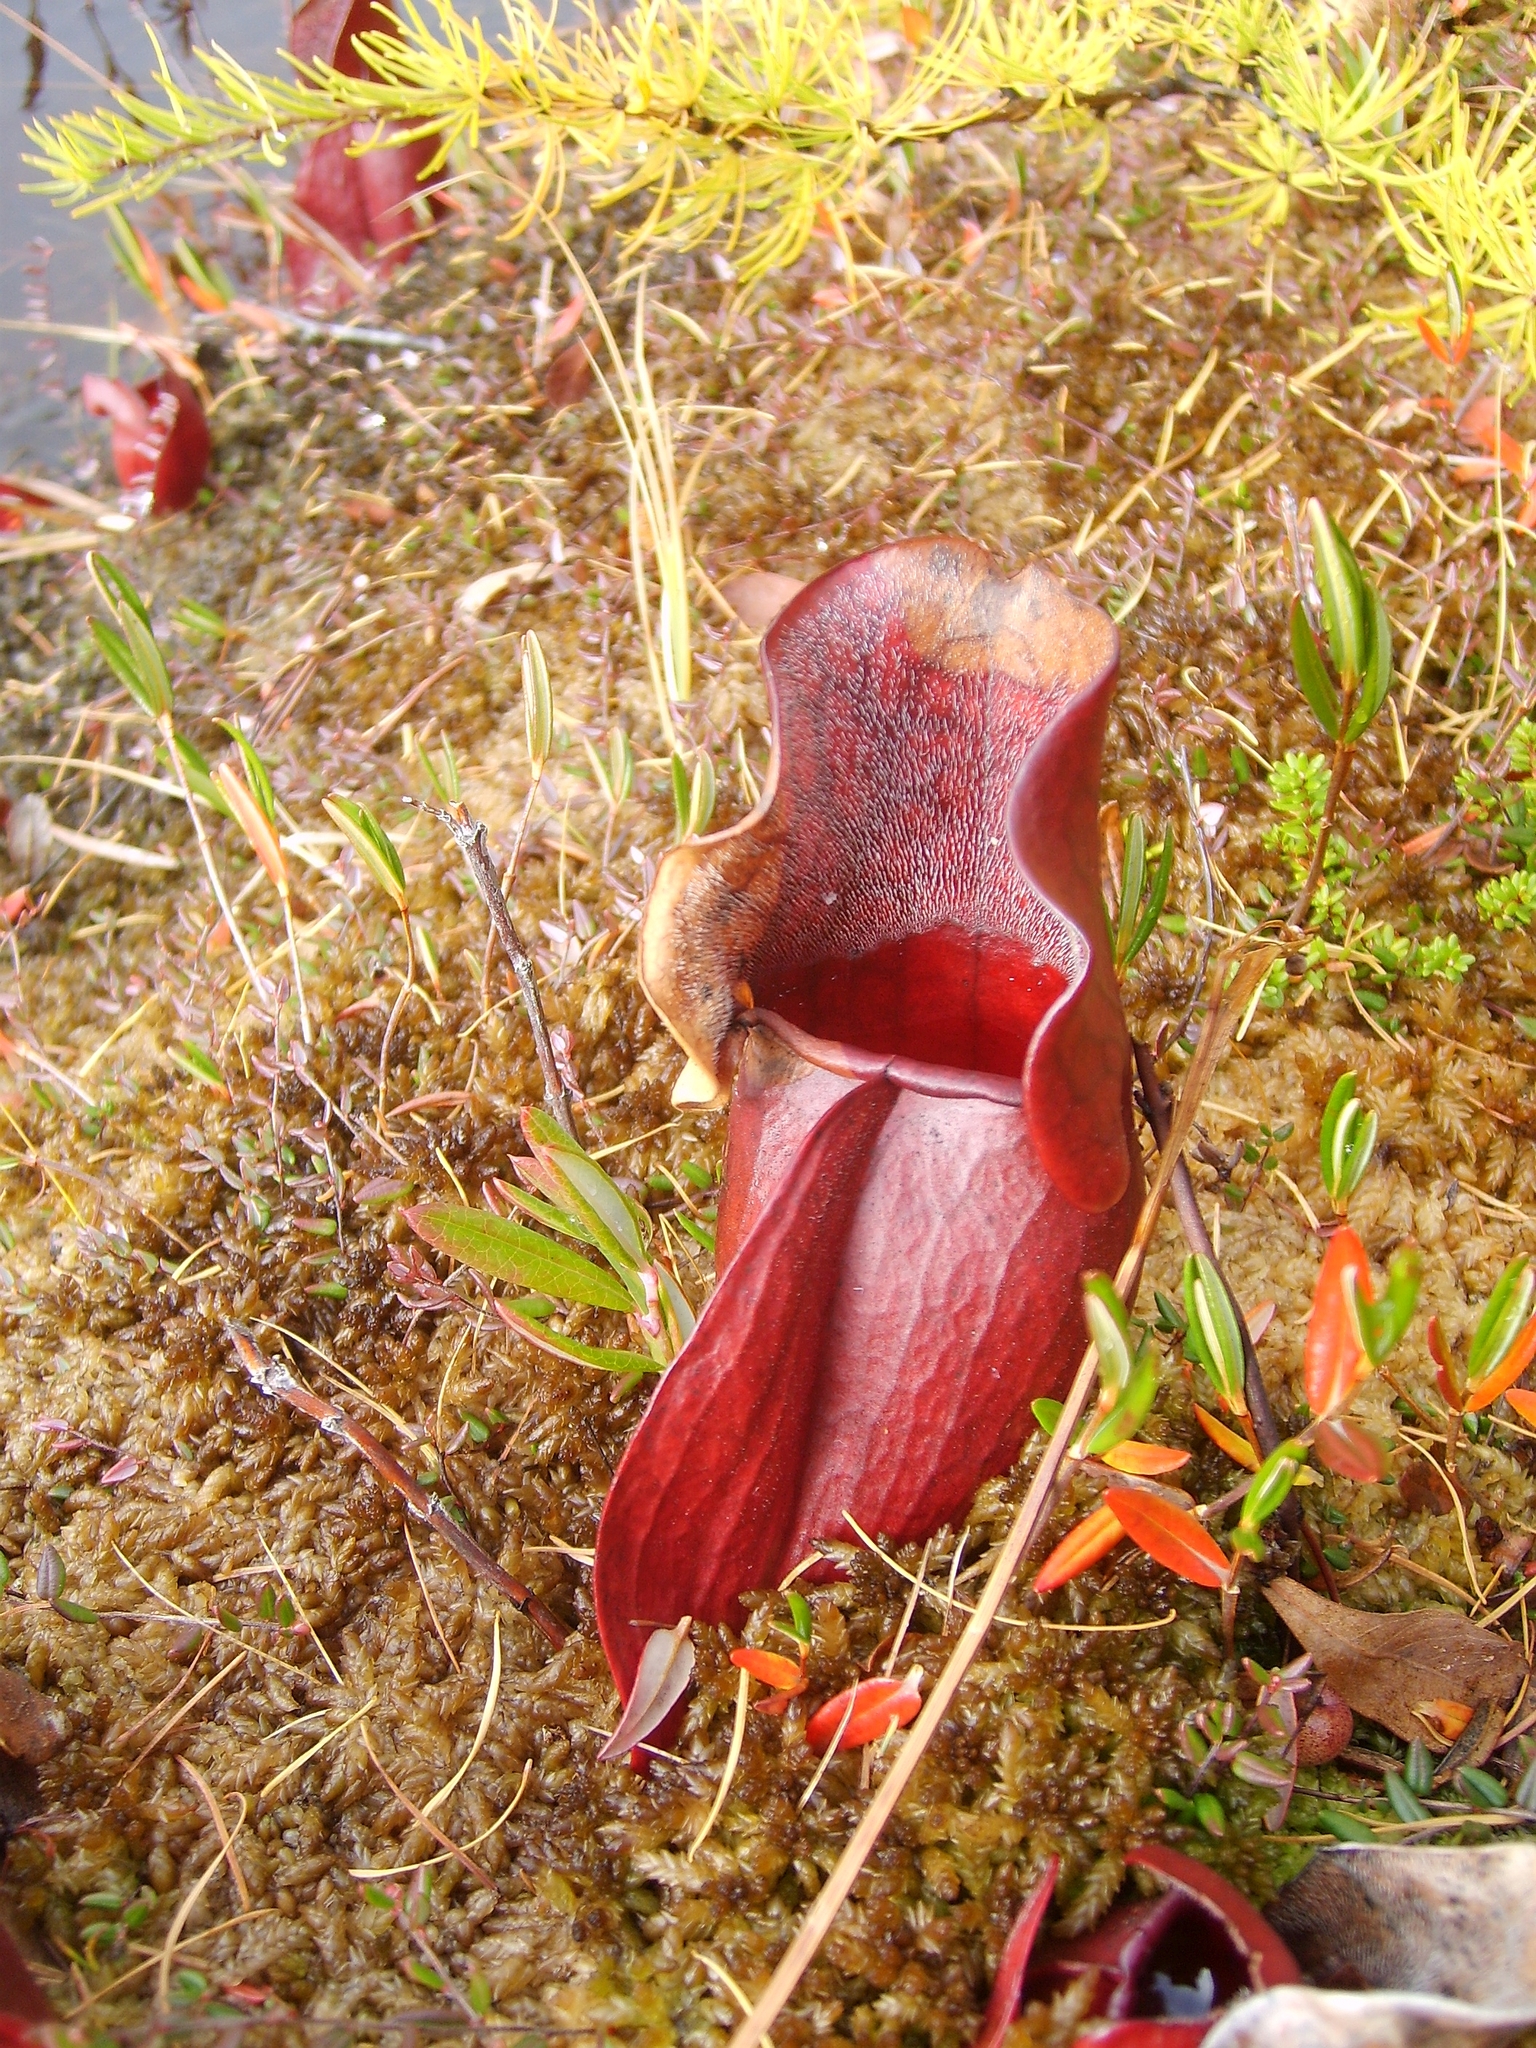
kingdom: Plantae
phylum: Tracheophyta
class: Magnoliopsida
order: Ericales
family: Sarraceniaceae
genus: Sarracenia
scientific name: Sarracenia purpurea
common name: Pitcherplant
